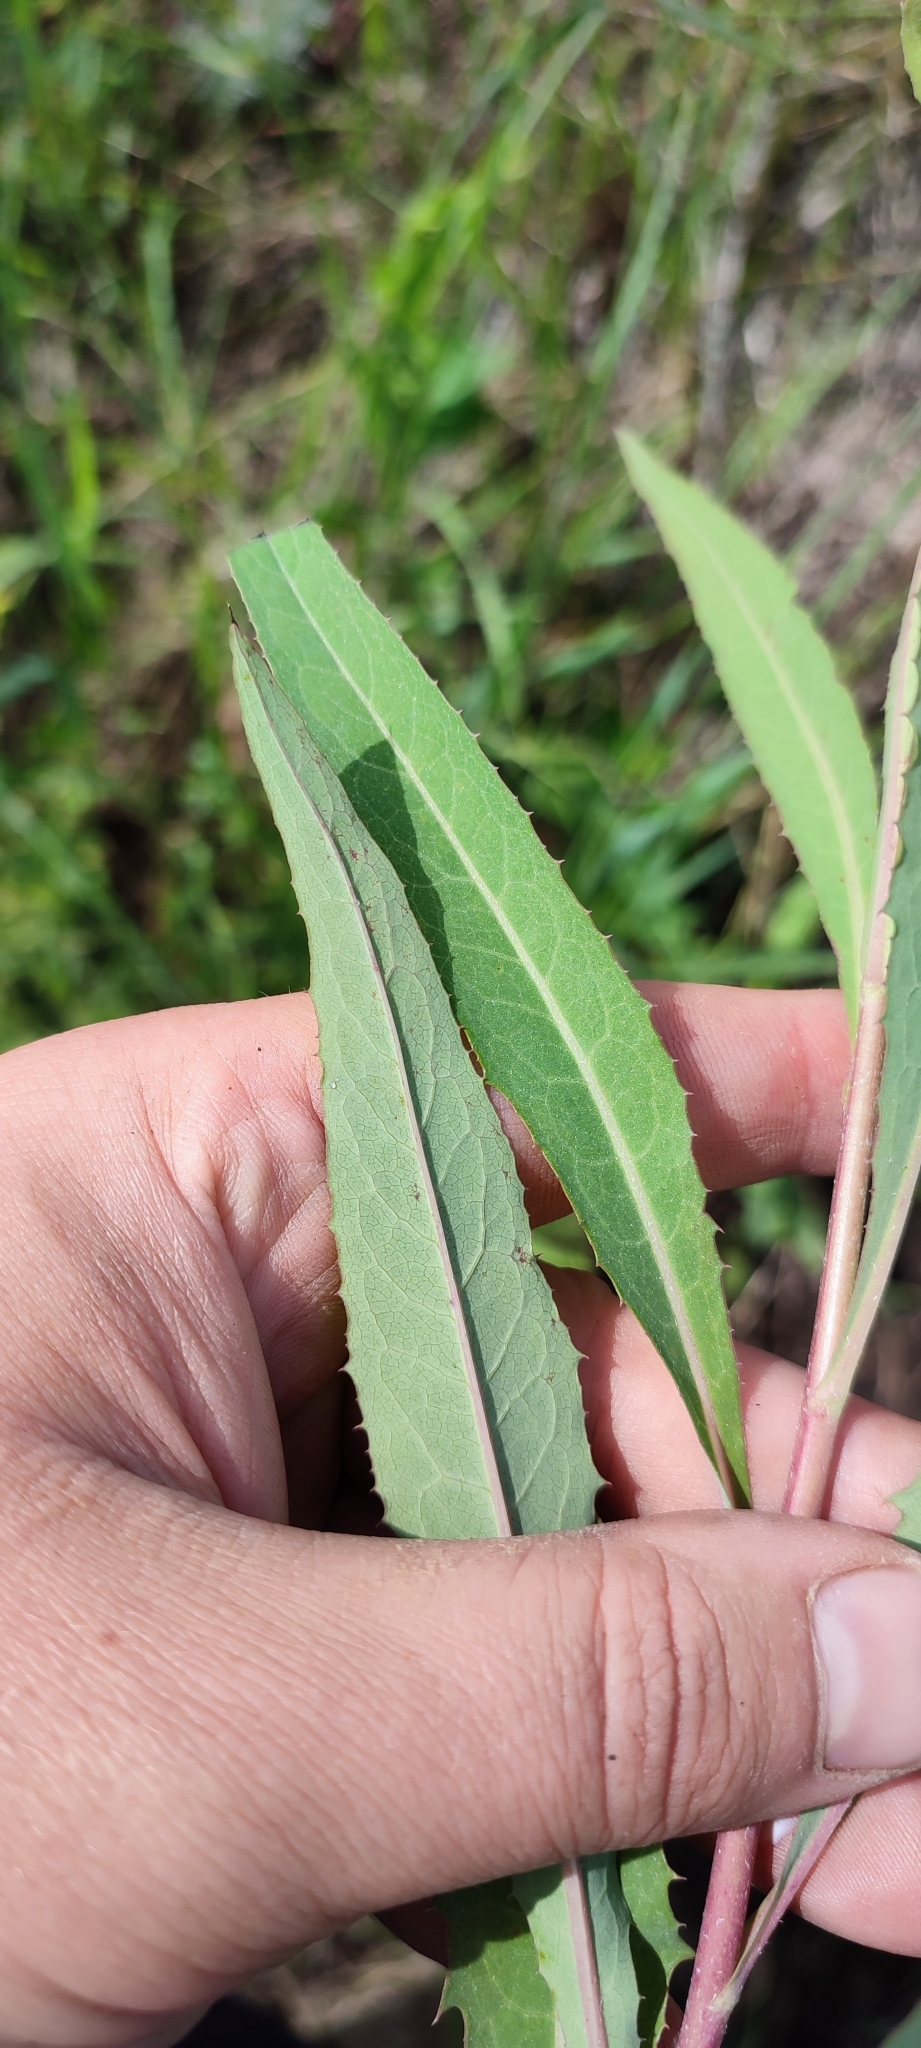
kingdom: Plantae
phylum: Tracheophyta
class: Magnoliopsida
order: Asterales
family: Asteraceae
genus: Lactuca
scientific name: Lactuca sibirica
